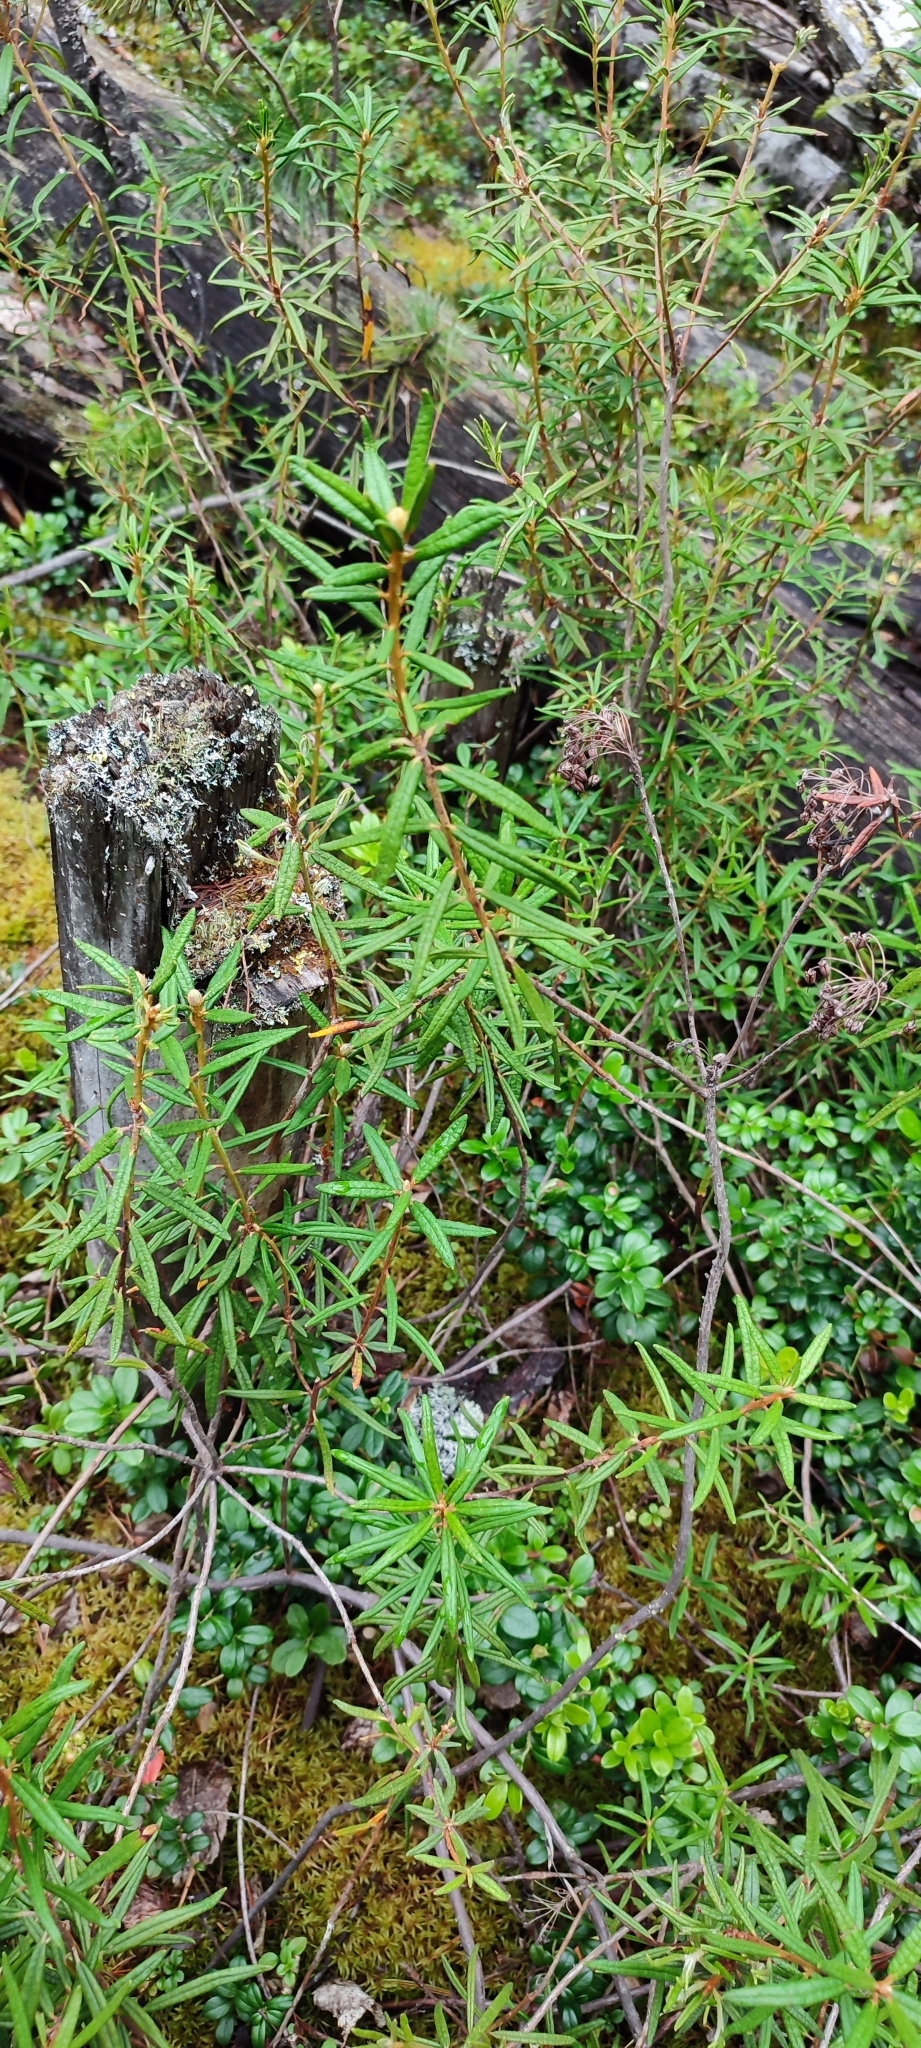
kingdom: Plantae
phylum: Tracheophyta
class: Magnoliopsida
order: Ericales
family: Ericaceae
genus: Rhododendron
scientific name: Rhododendron tomentosum
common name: Marsh labrador tea
